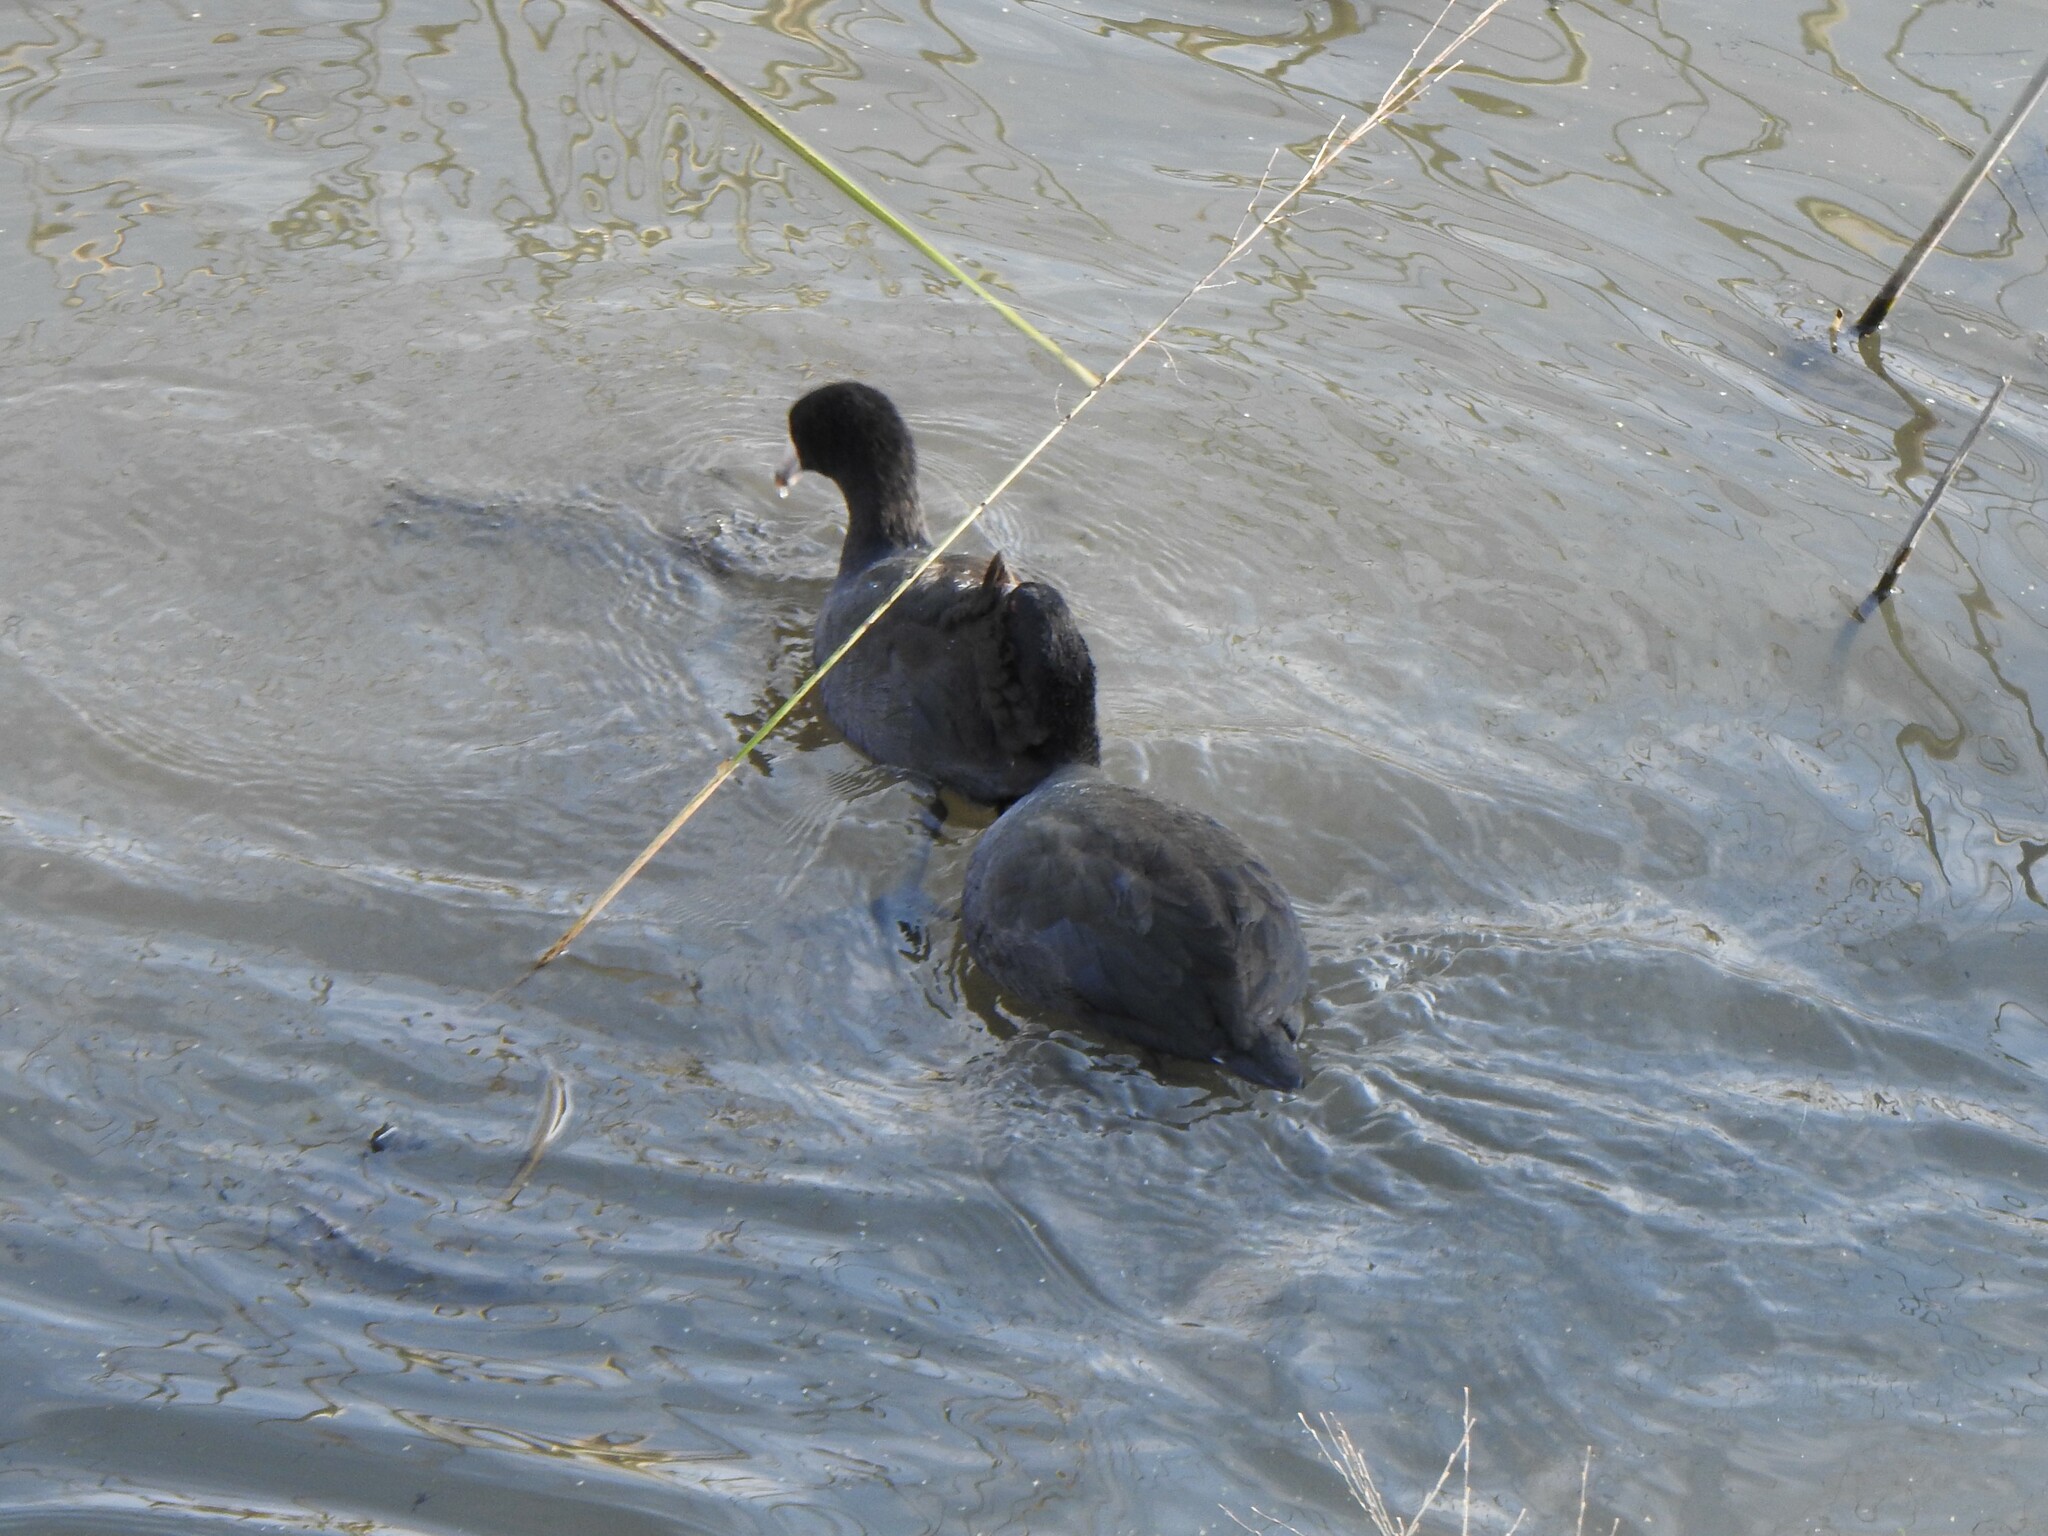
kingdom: Animalia
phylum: Chordata
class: Aves
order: Gruiformes
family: Rallidae
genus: Fulica
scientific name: Fulica americana
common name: American coot
